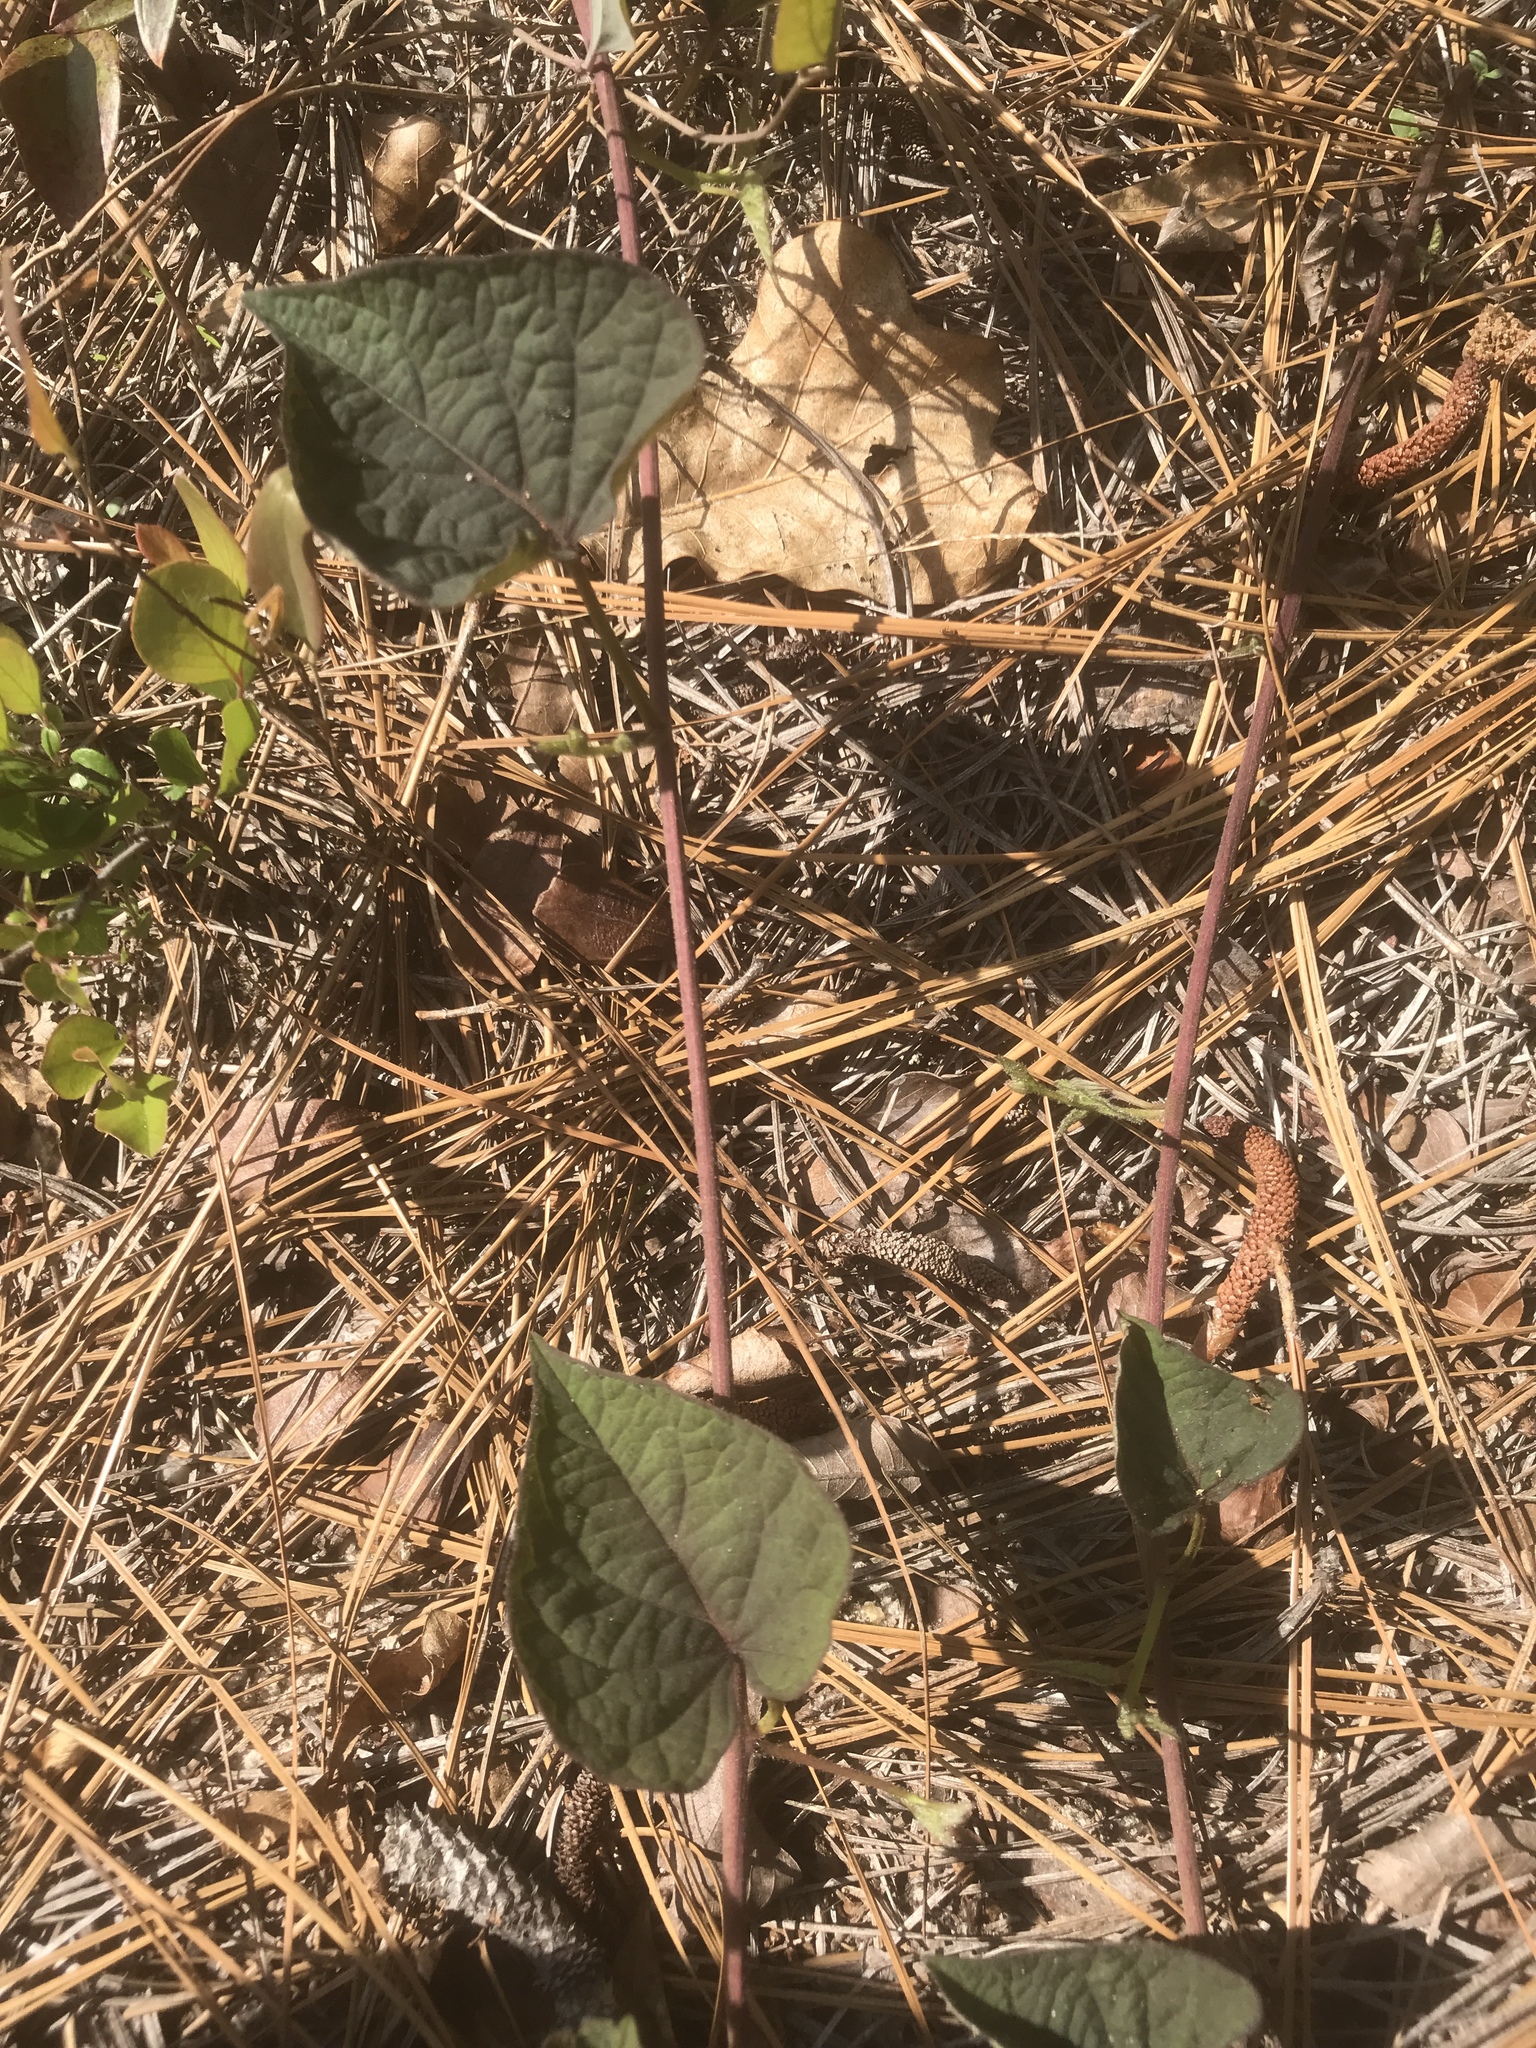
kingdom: Plantae
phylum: Tracheophyta
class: Magnoliopsida
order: Solanales
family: Convolvulaceae
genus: Ipomoea
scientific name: Ipomoea pandurata
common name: Man-of-the-earth
